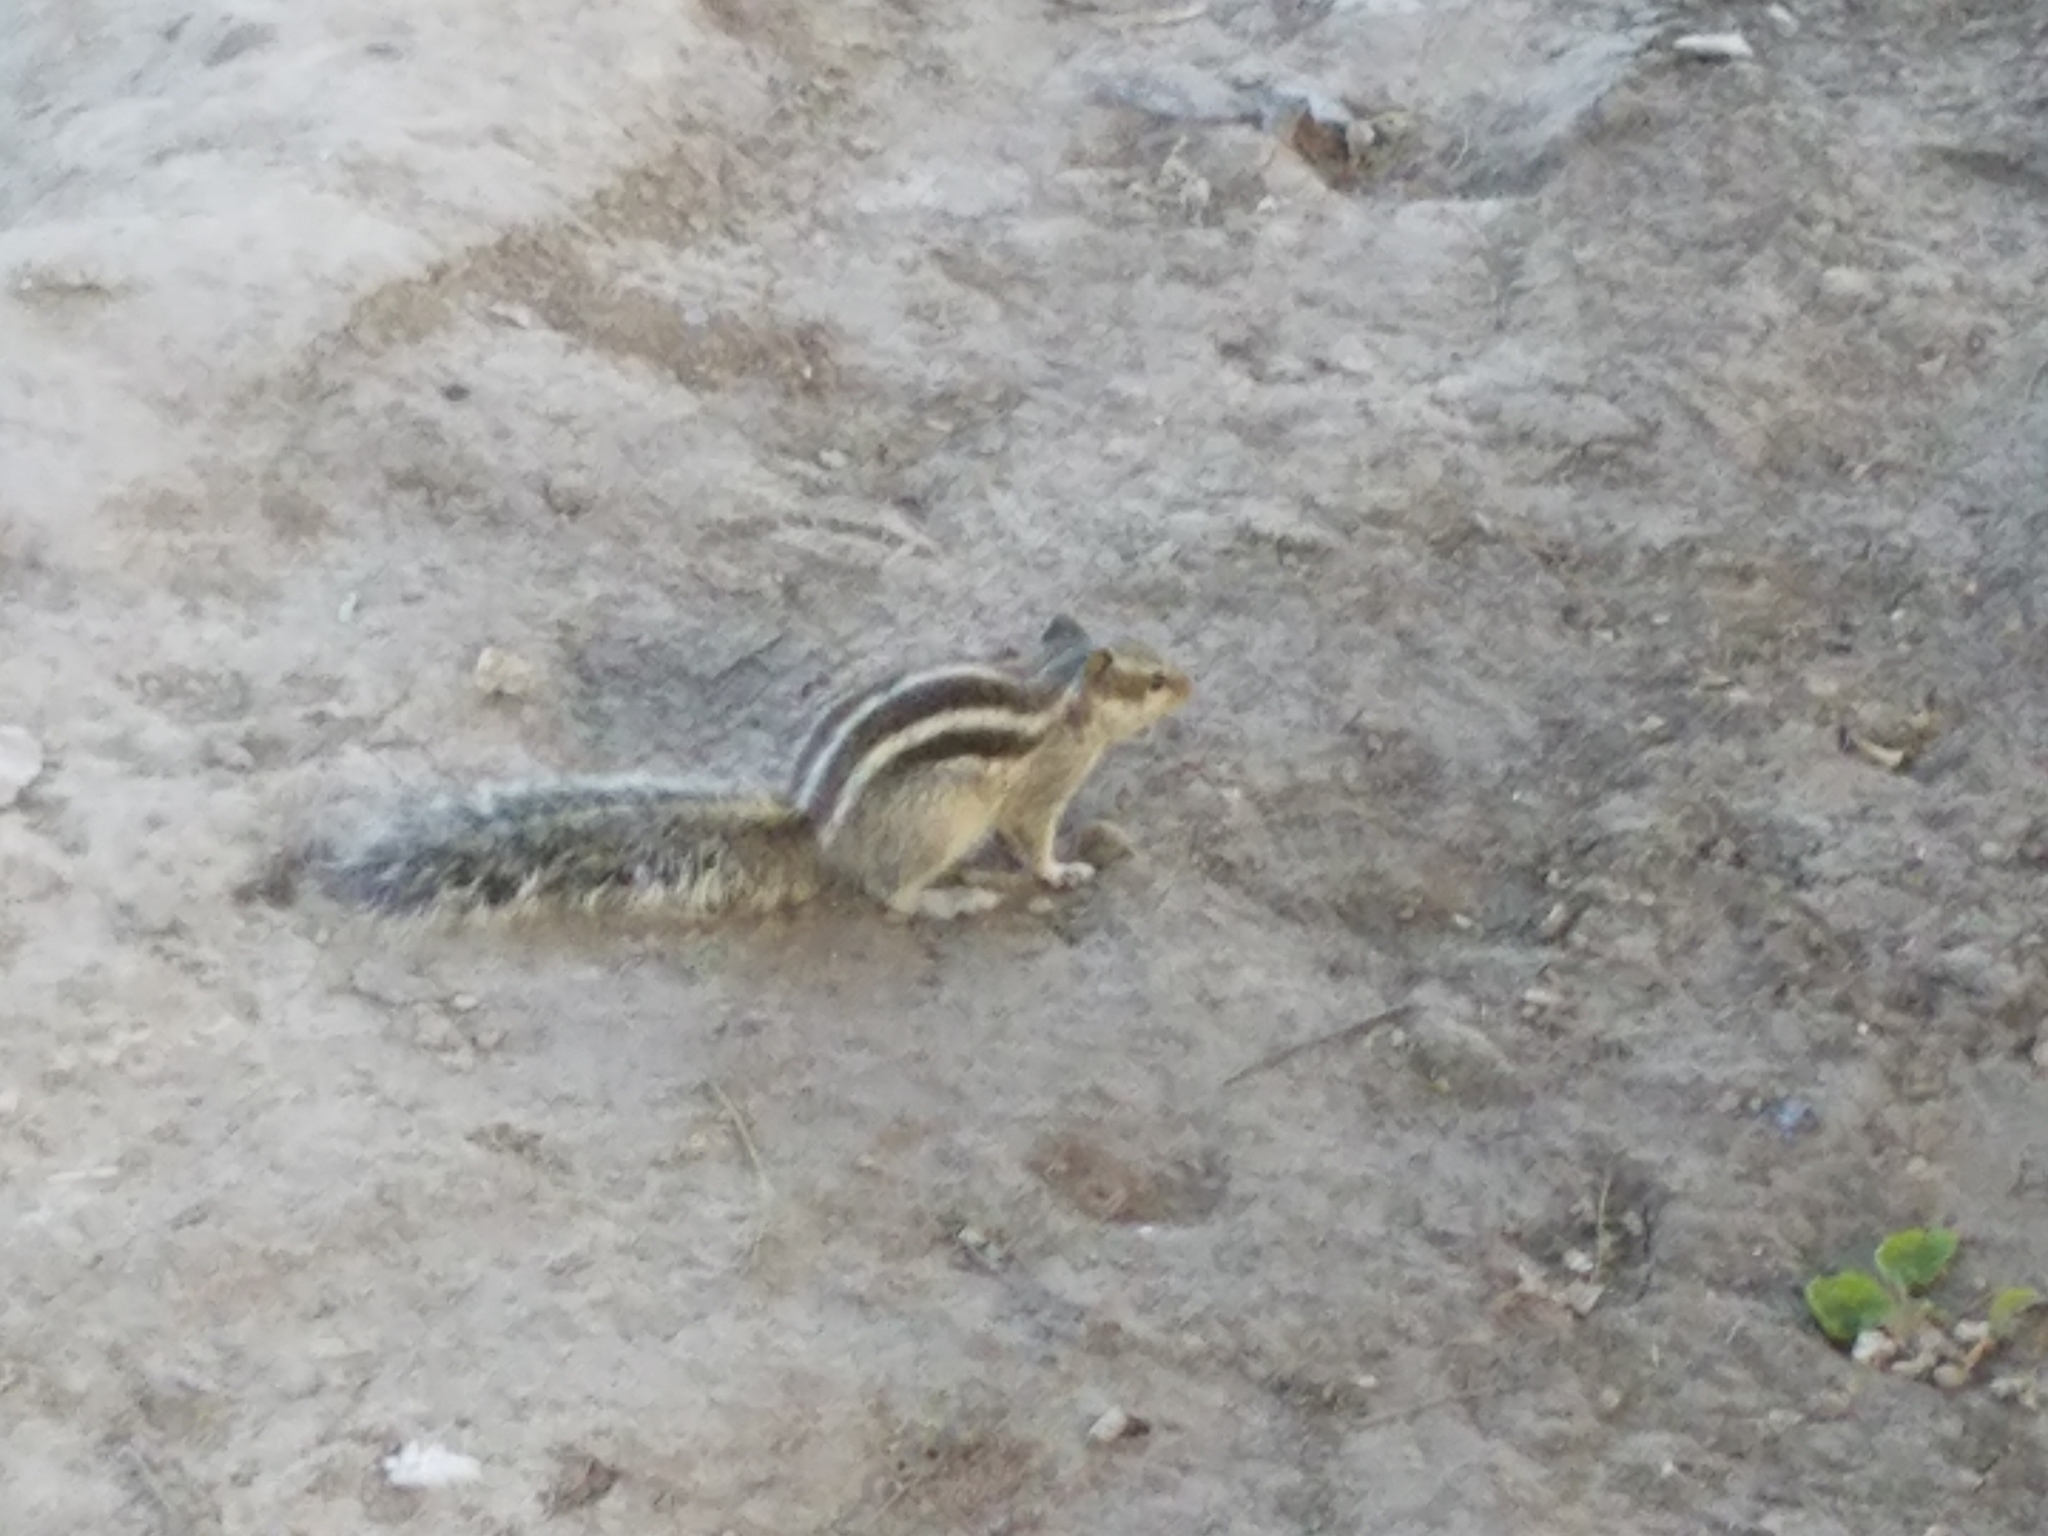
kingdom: Animalia
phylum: Chordata
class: Mammalia
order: Rodentia
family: Sciuridae
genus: Funambulus
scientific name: Funambulus pennantii
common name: Northern palm squirrel
